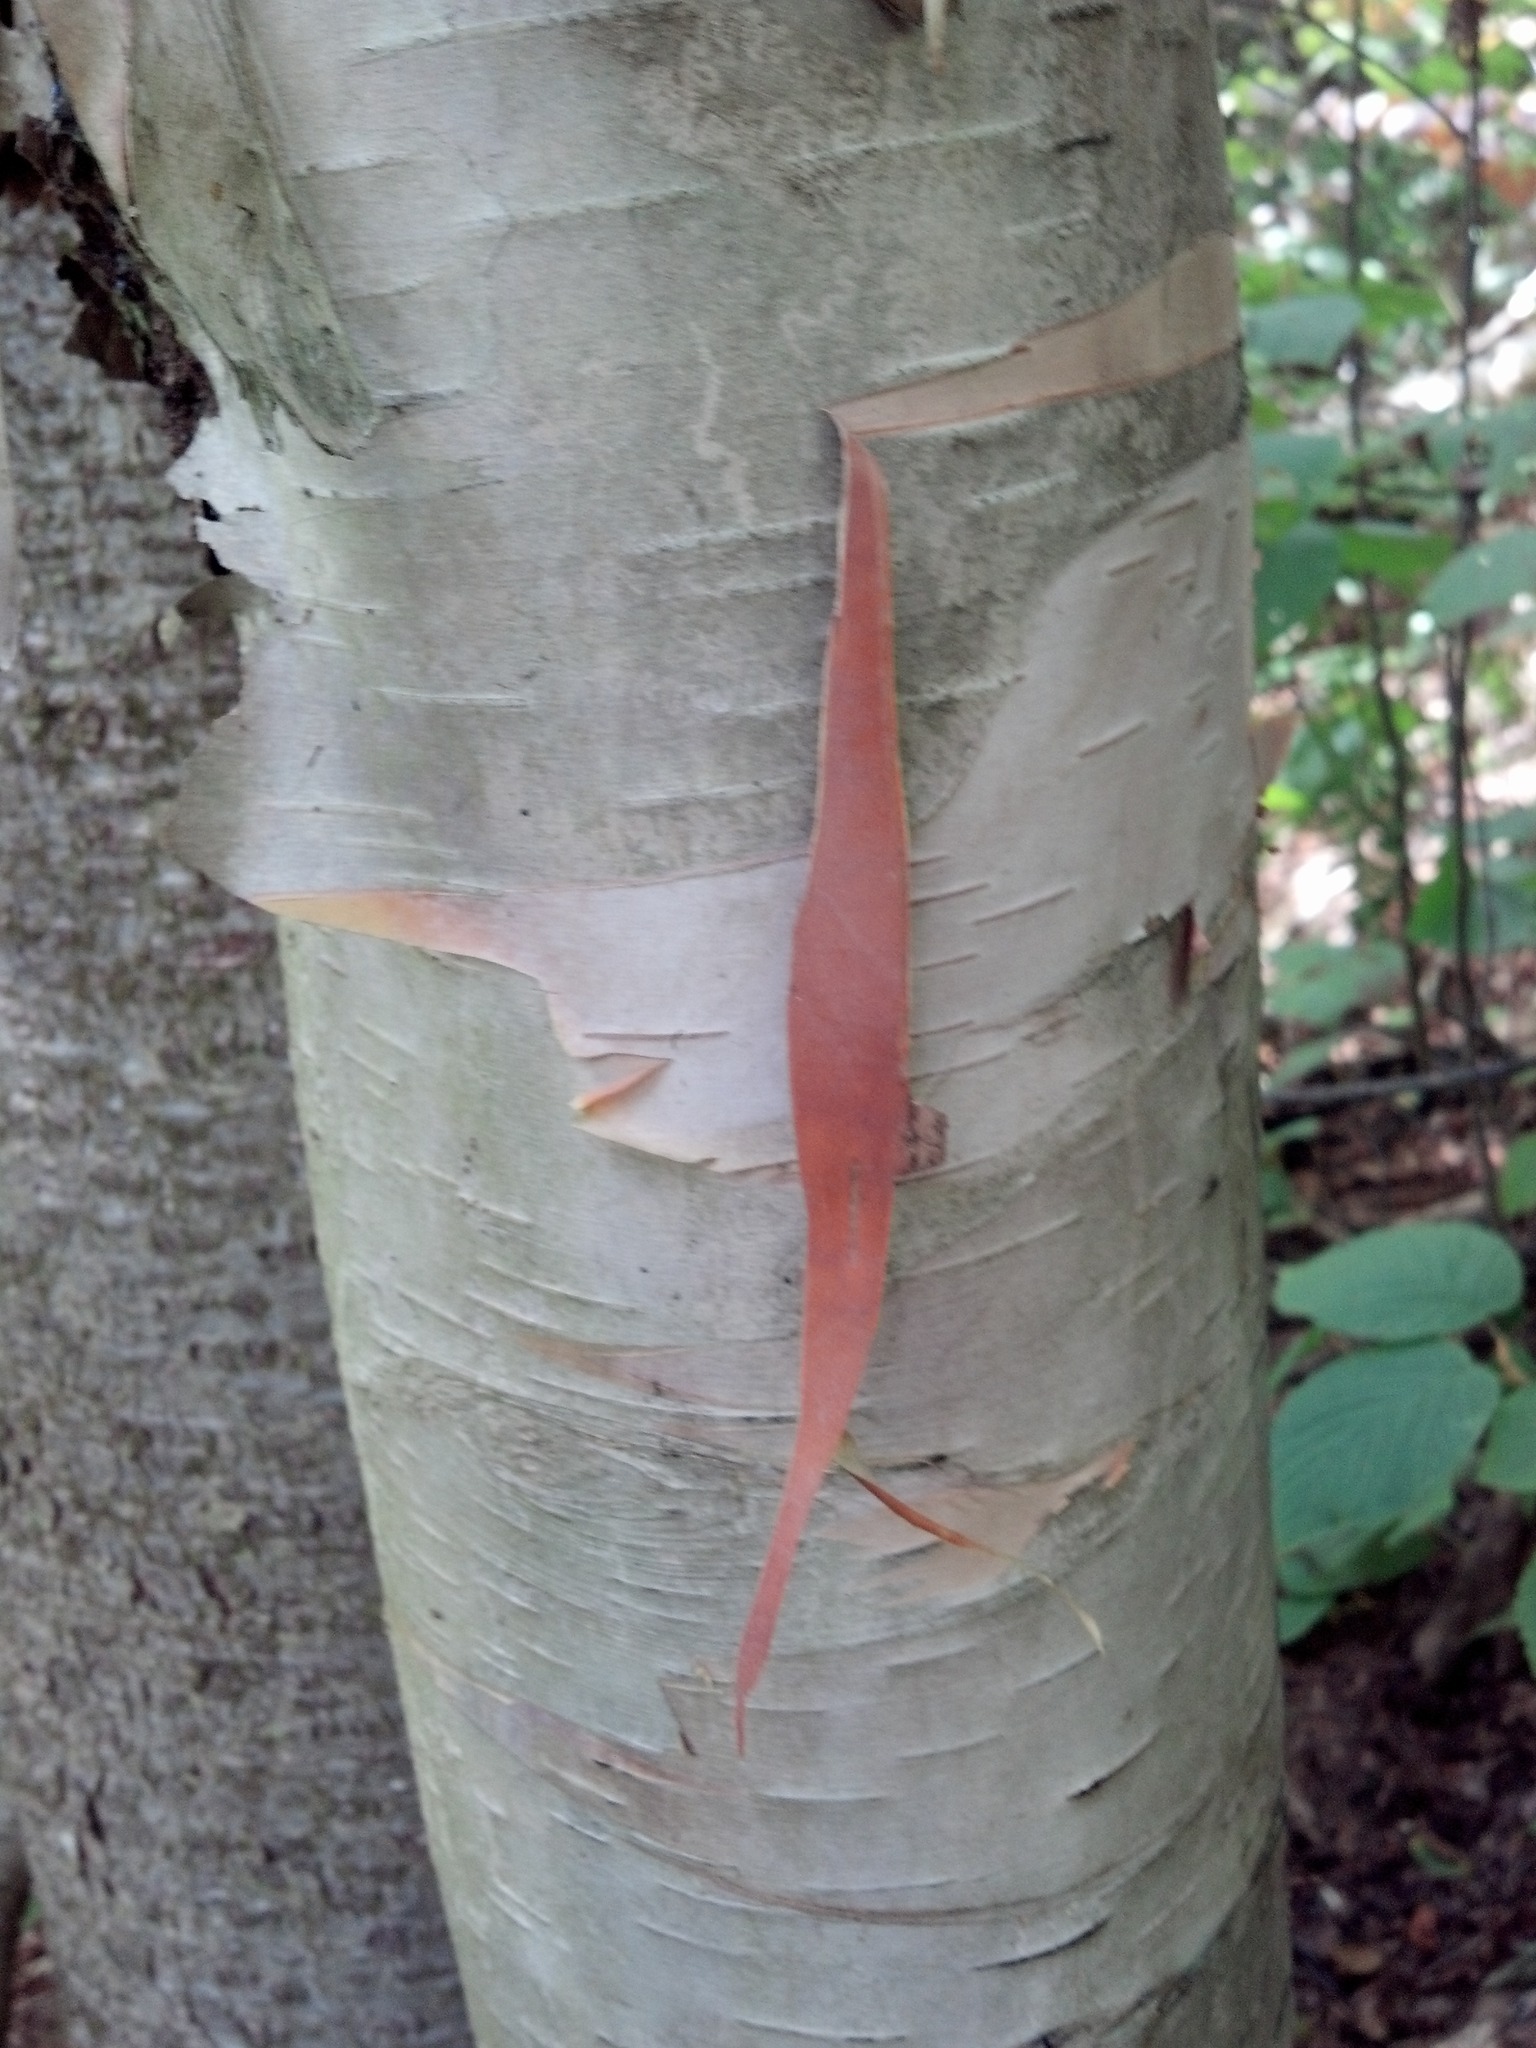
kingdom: Plantae
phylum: Tracheophyta
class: Magnoliopsida
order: Fagales
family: Betulaceae
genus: Betula
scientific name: Betula cordifolia
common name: Mountain white birch
